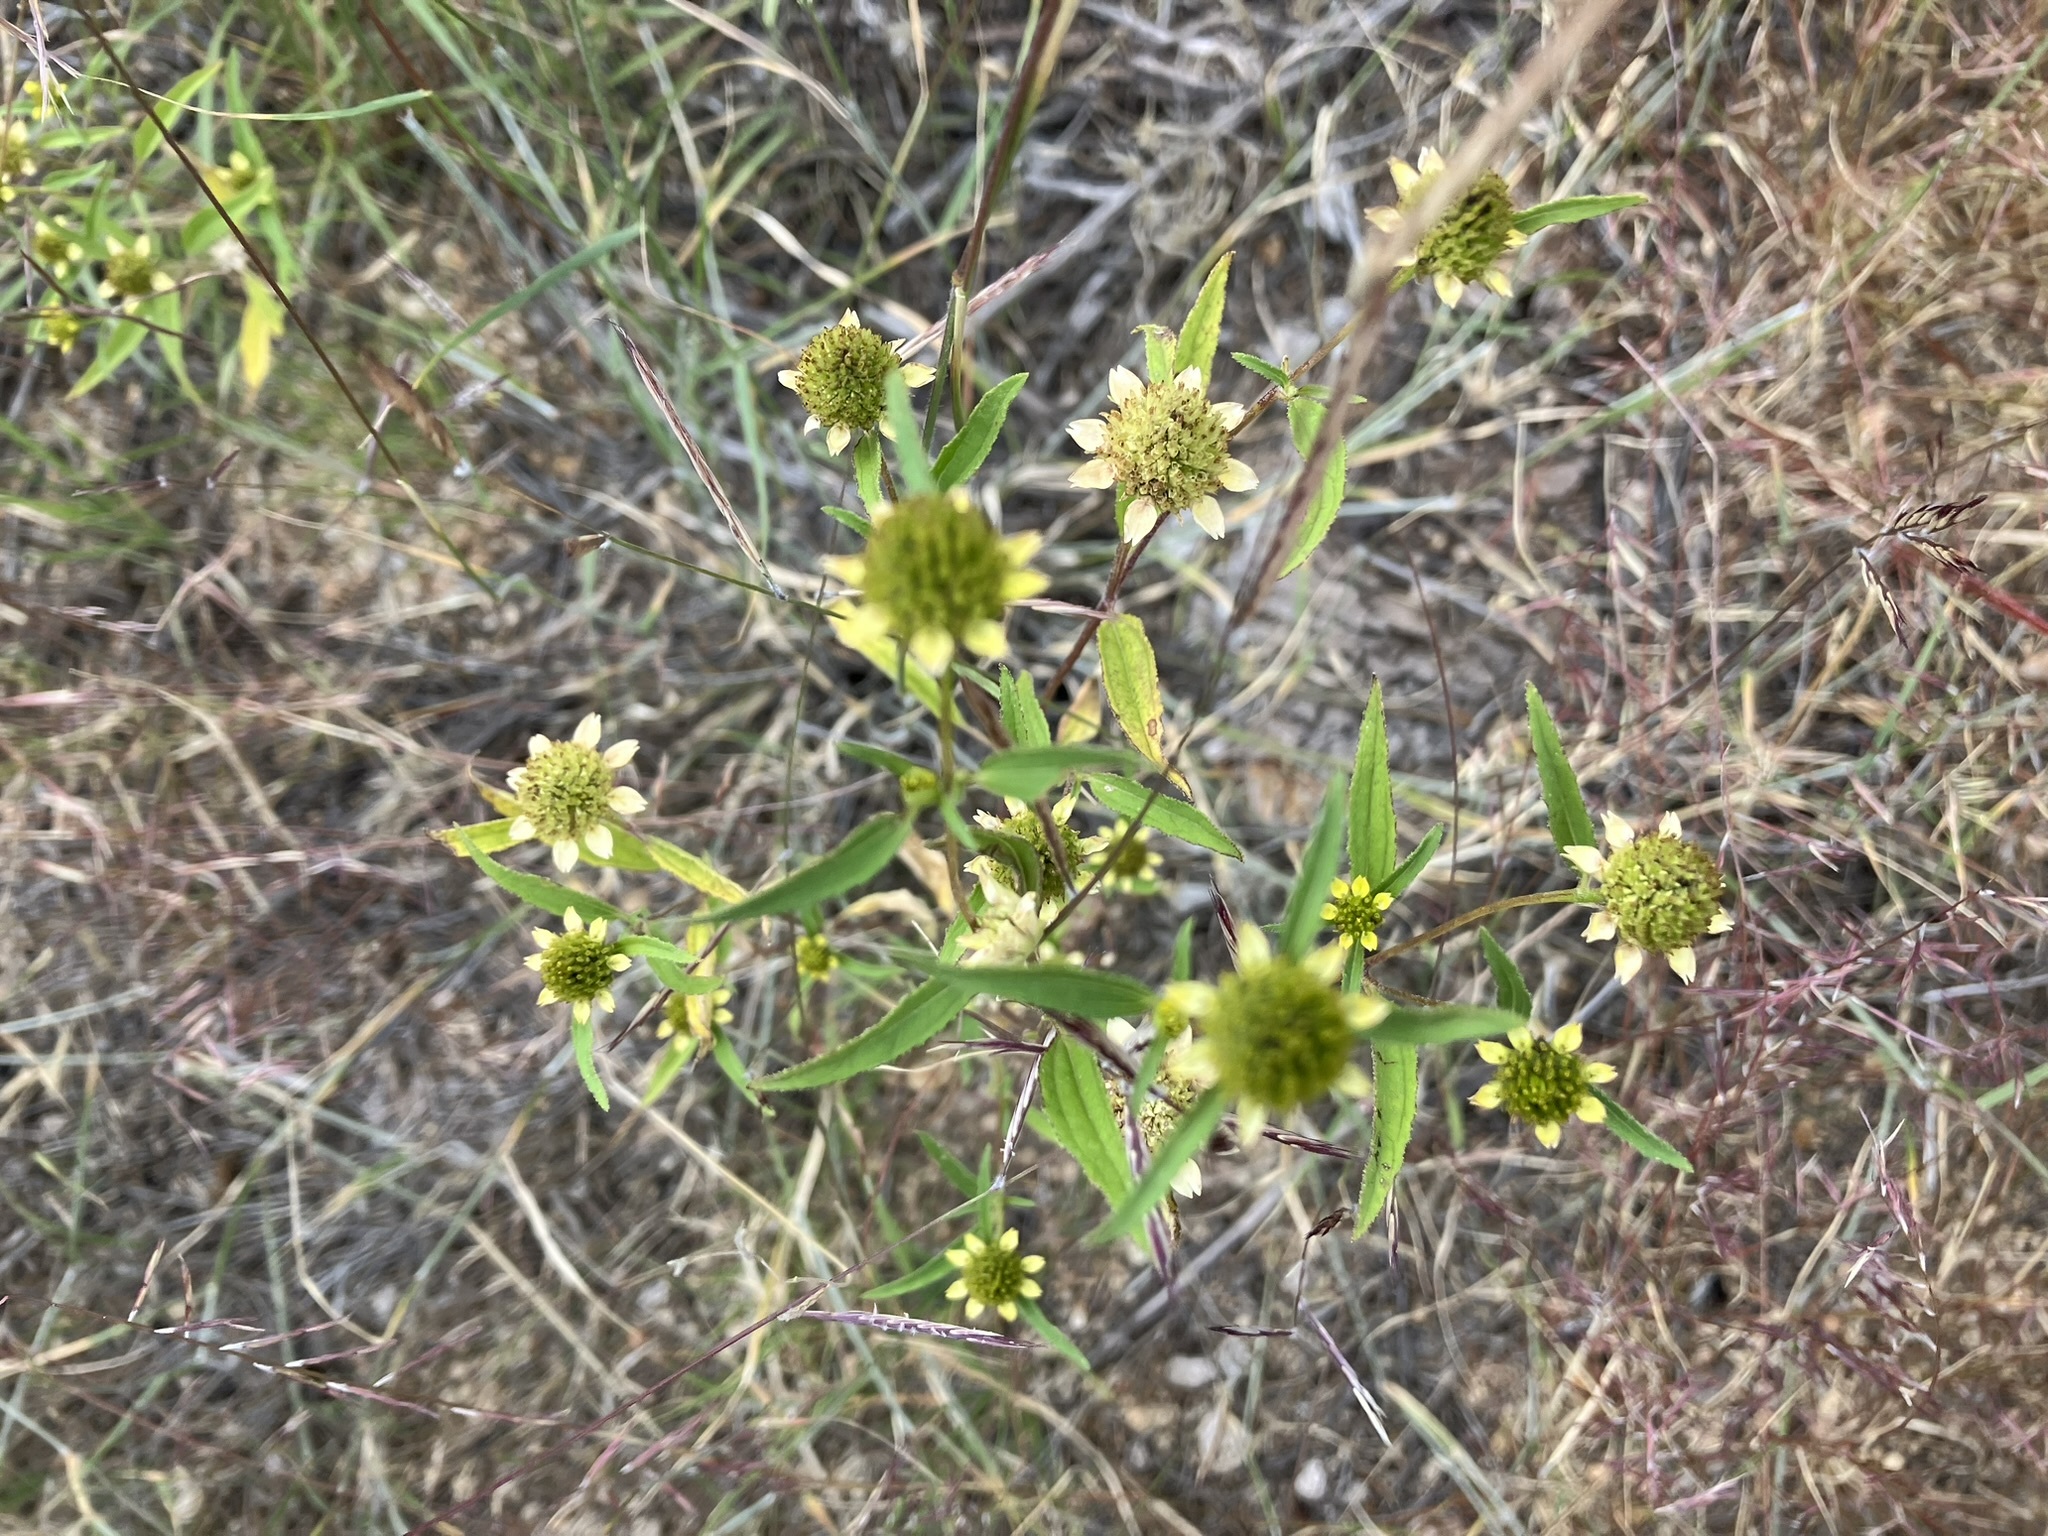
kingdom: Plantae
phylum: Tracheophyta
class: Magnoliopsida
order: Asterales
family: Asteraceae
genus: Sanvitalia
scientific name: Sanvitalia abertii
